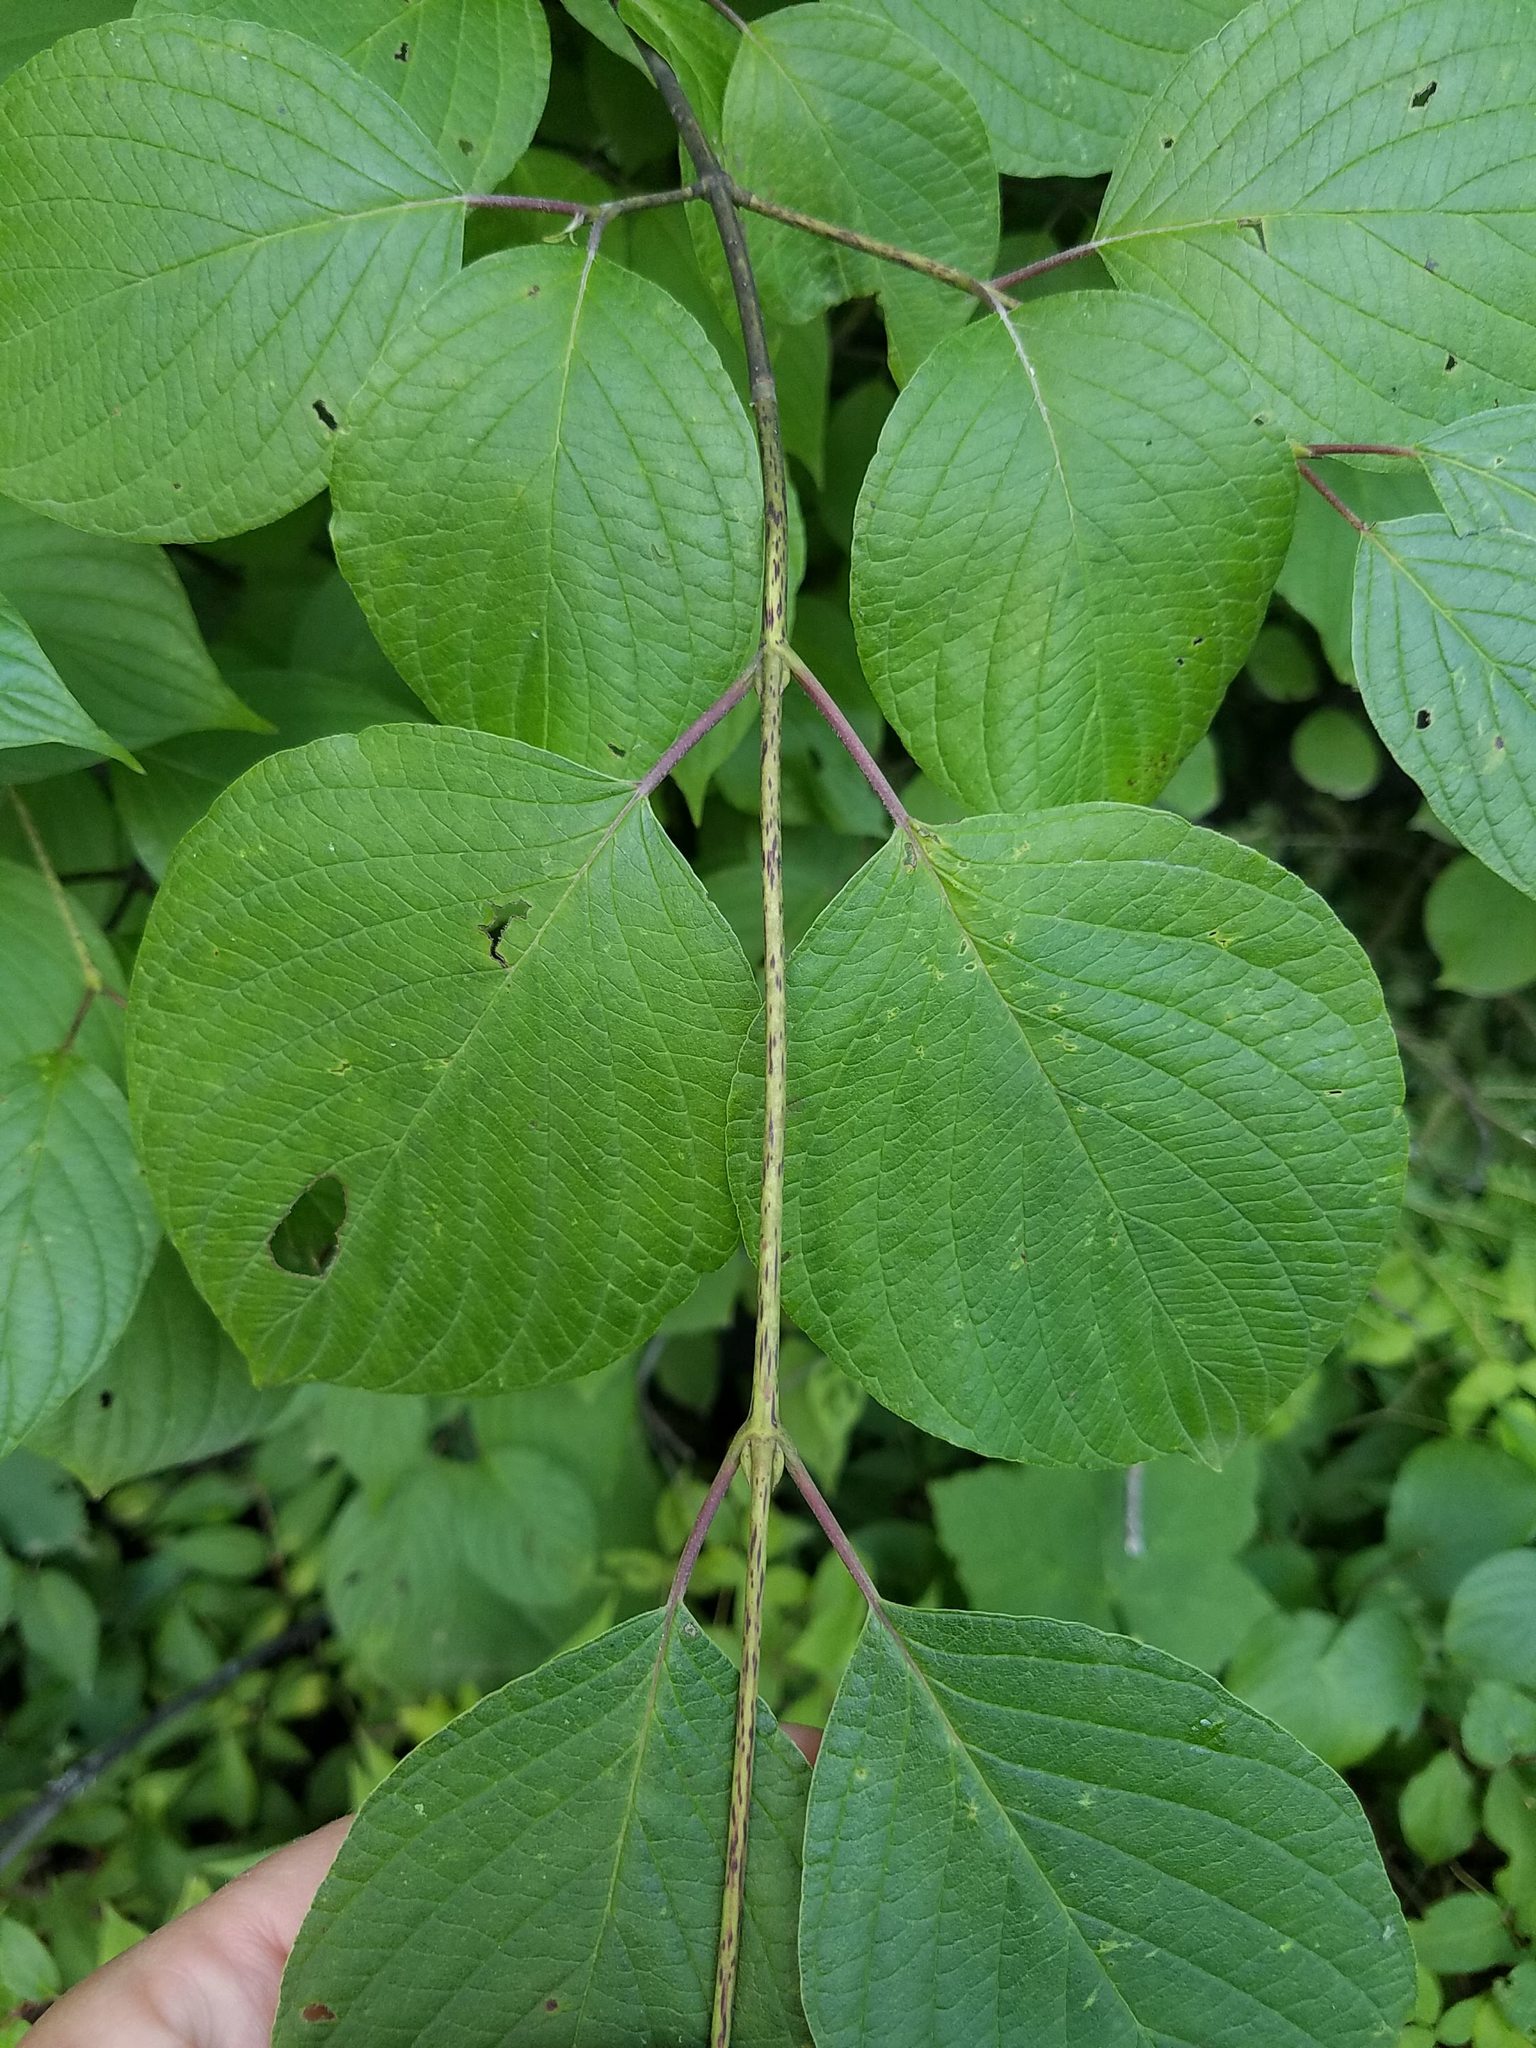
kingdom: Plantae
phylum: Tracheophyta
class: Magnoliopsida
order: Cornales
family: Cornaceae
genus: Cornus
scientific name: Cornus rugosa
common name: Round-leaf dogwood
